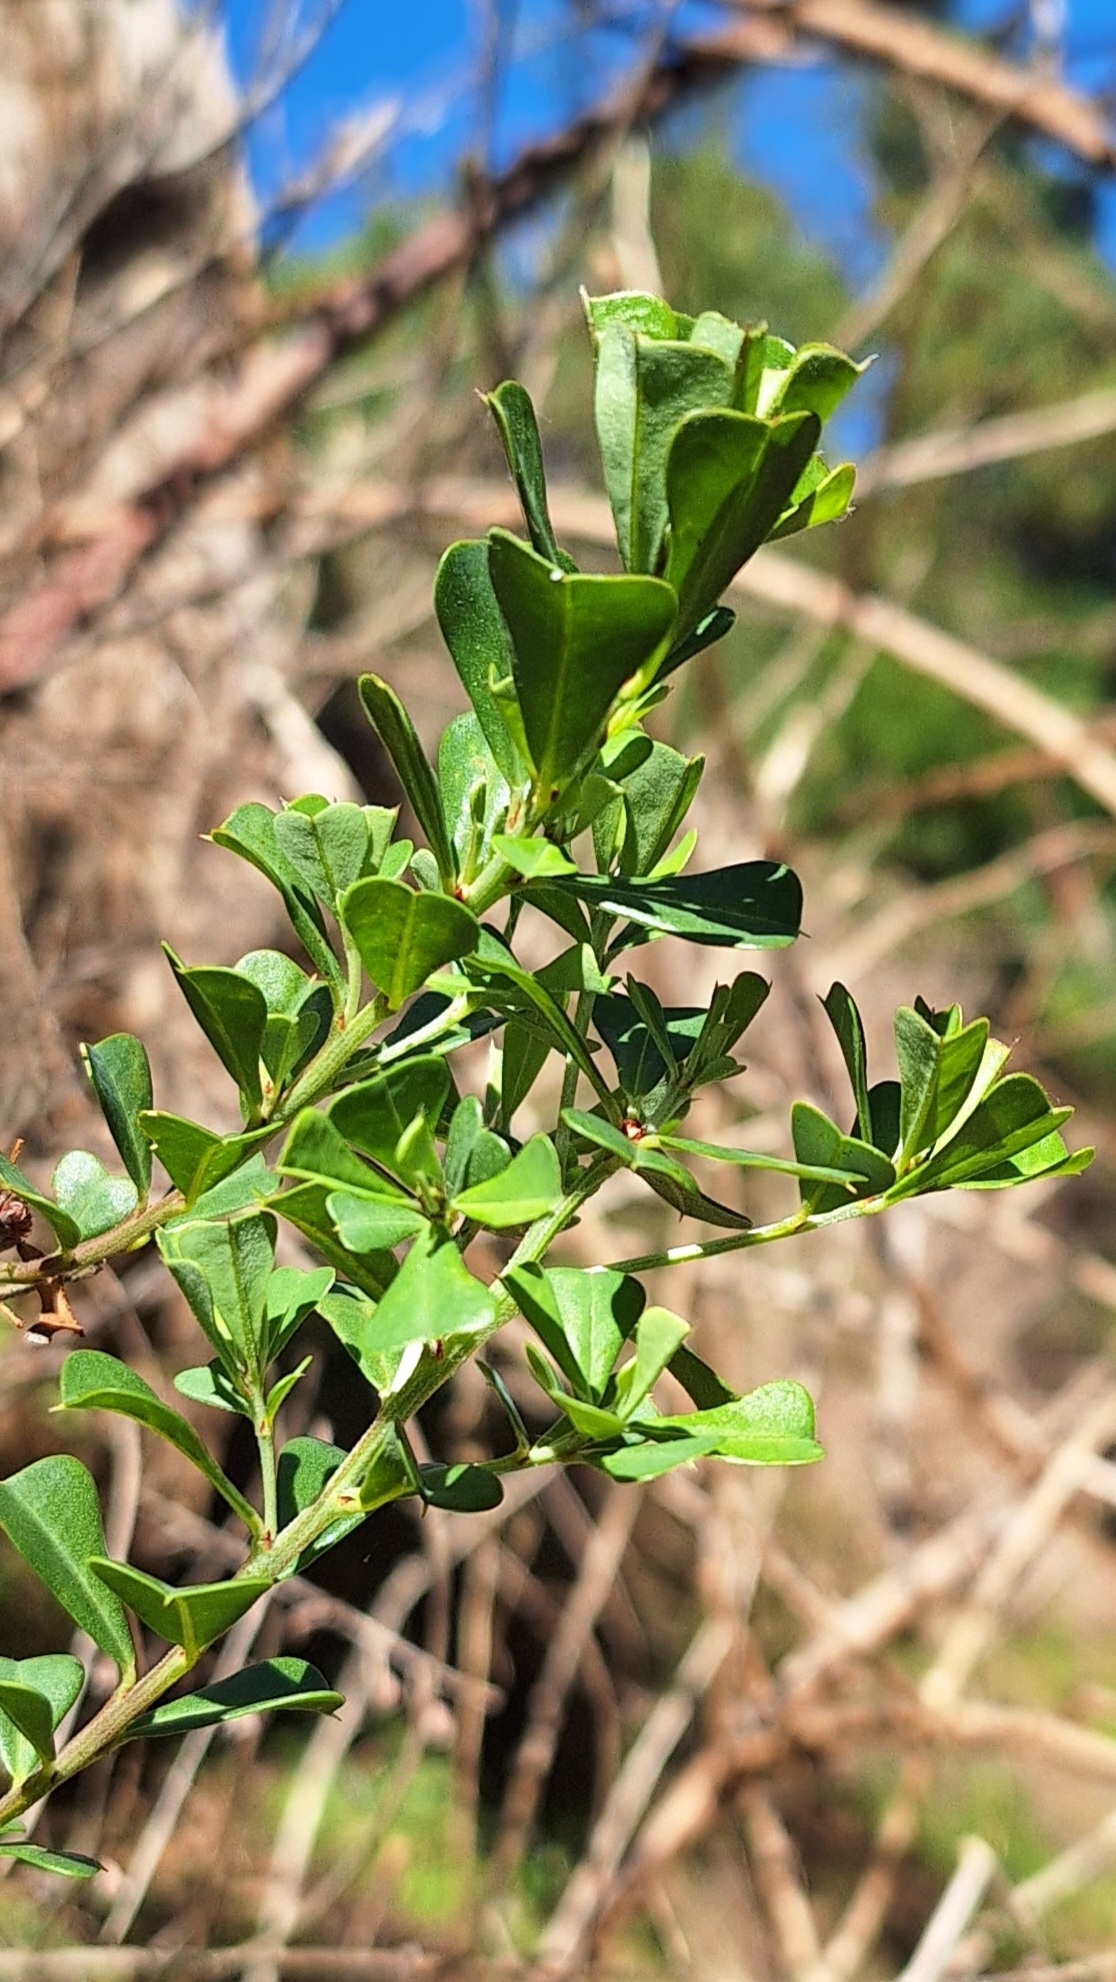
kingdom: Plantae
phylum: Tracheophyta
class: Magnoliopsida
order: Fabales
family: Fabaceae
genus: Pultenaea
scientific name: Pultenaea daphnoides
